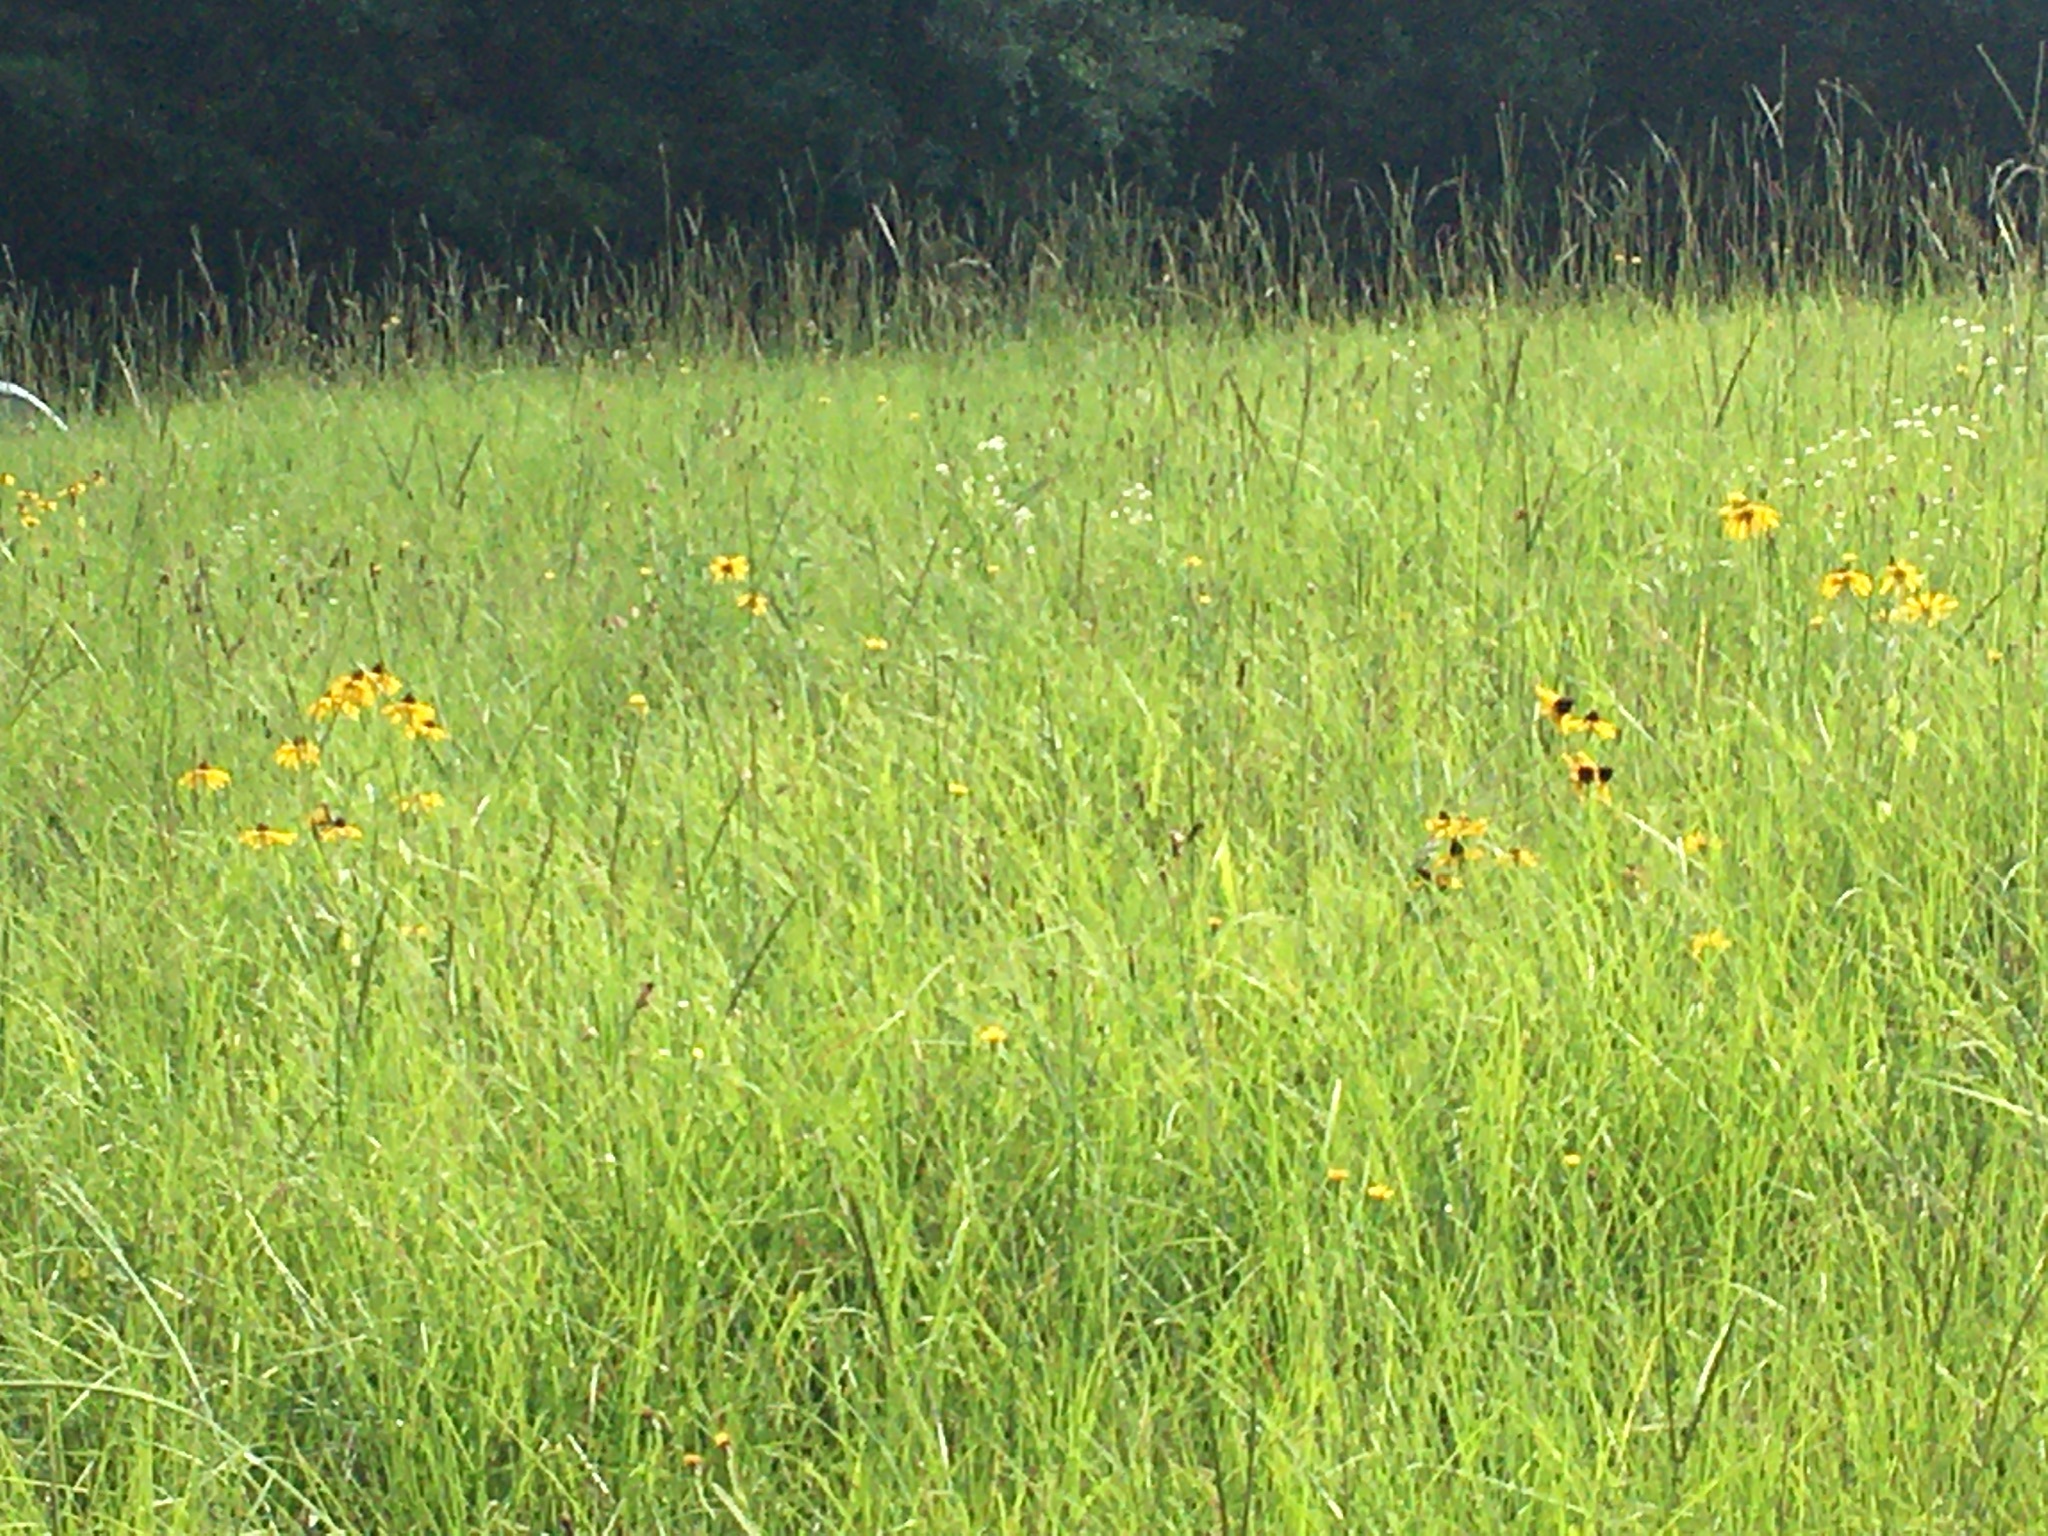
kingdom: Plantae
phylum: Tracheophyta
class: Magnoliopsida
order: Asterales
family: Asteraceae
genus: Rudbeckia
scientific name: Rudbeckia hirta
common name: Black-eyed-susan
